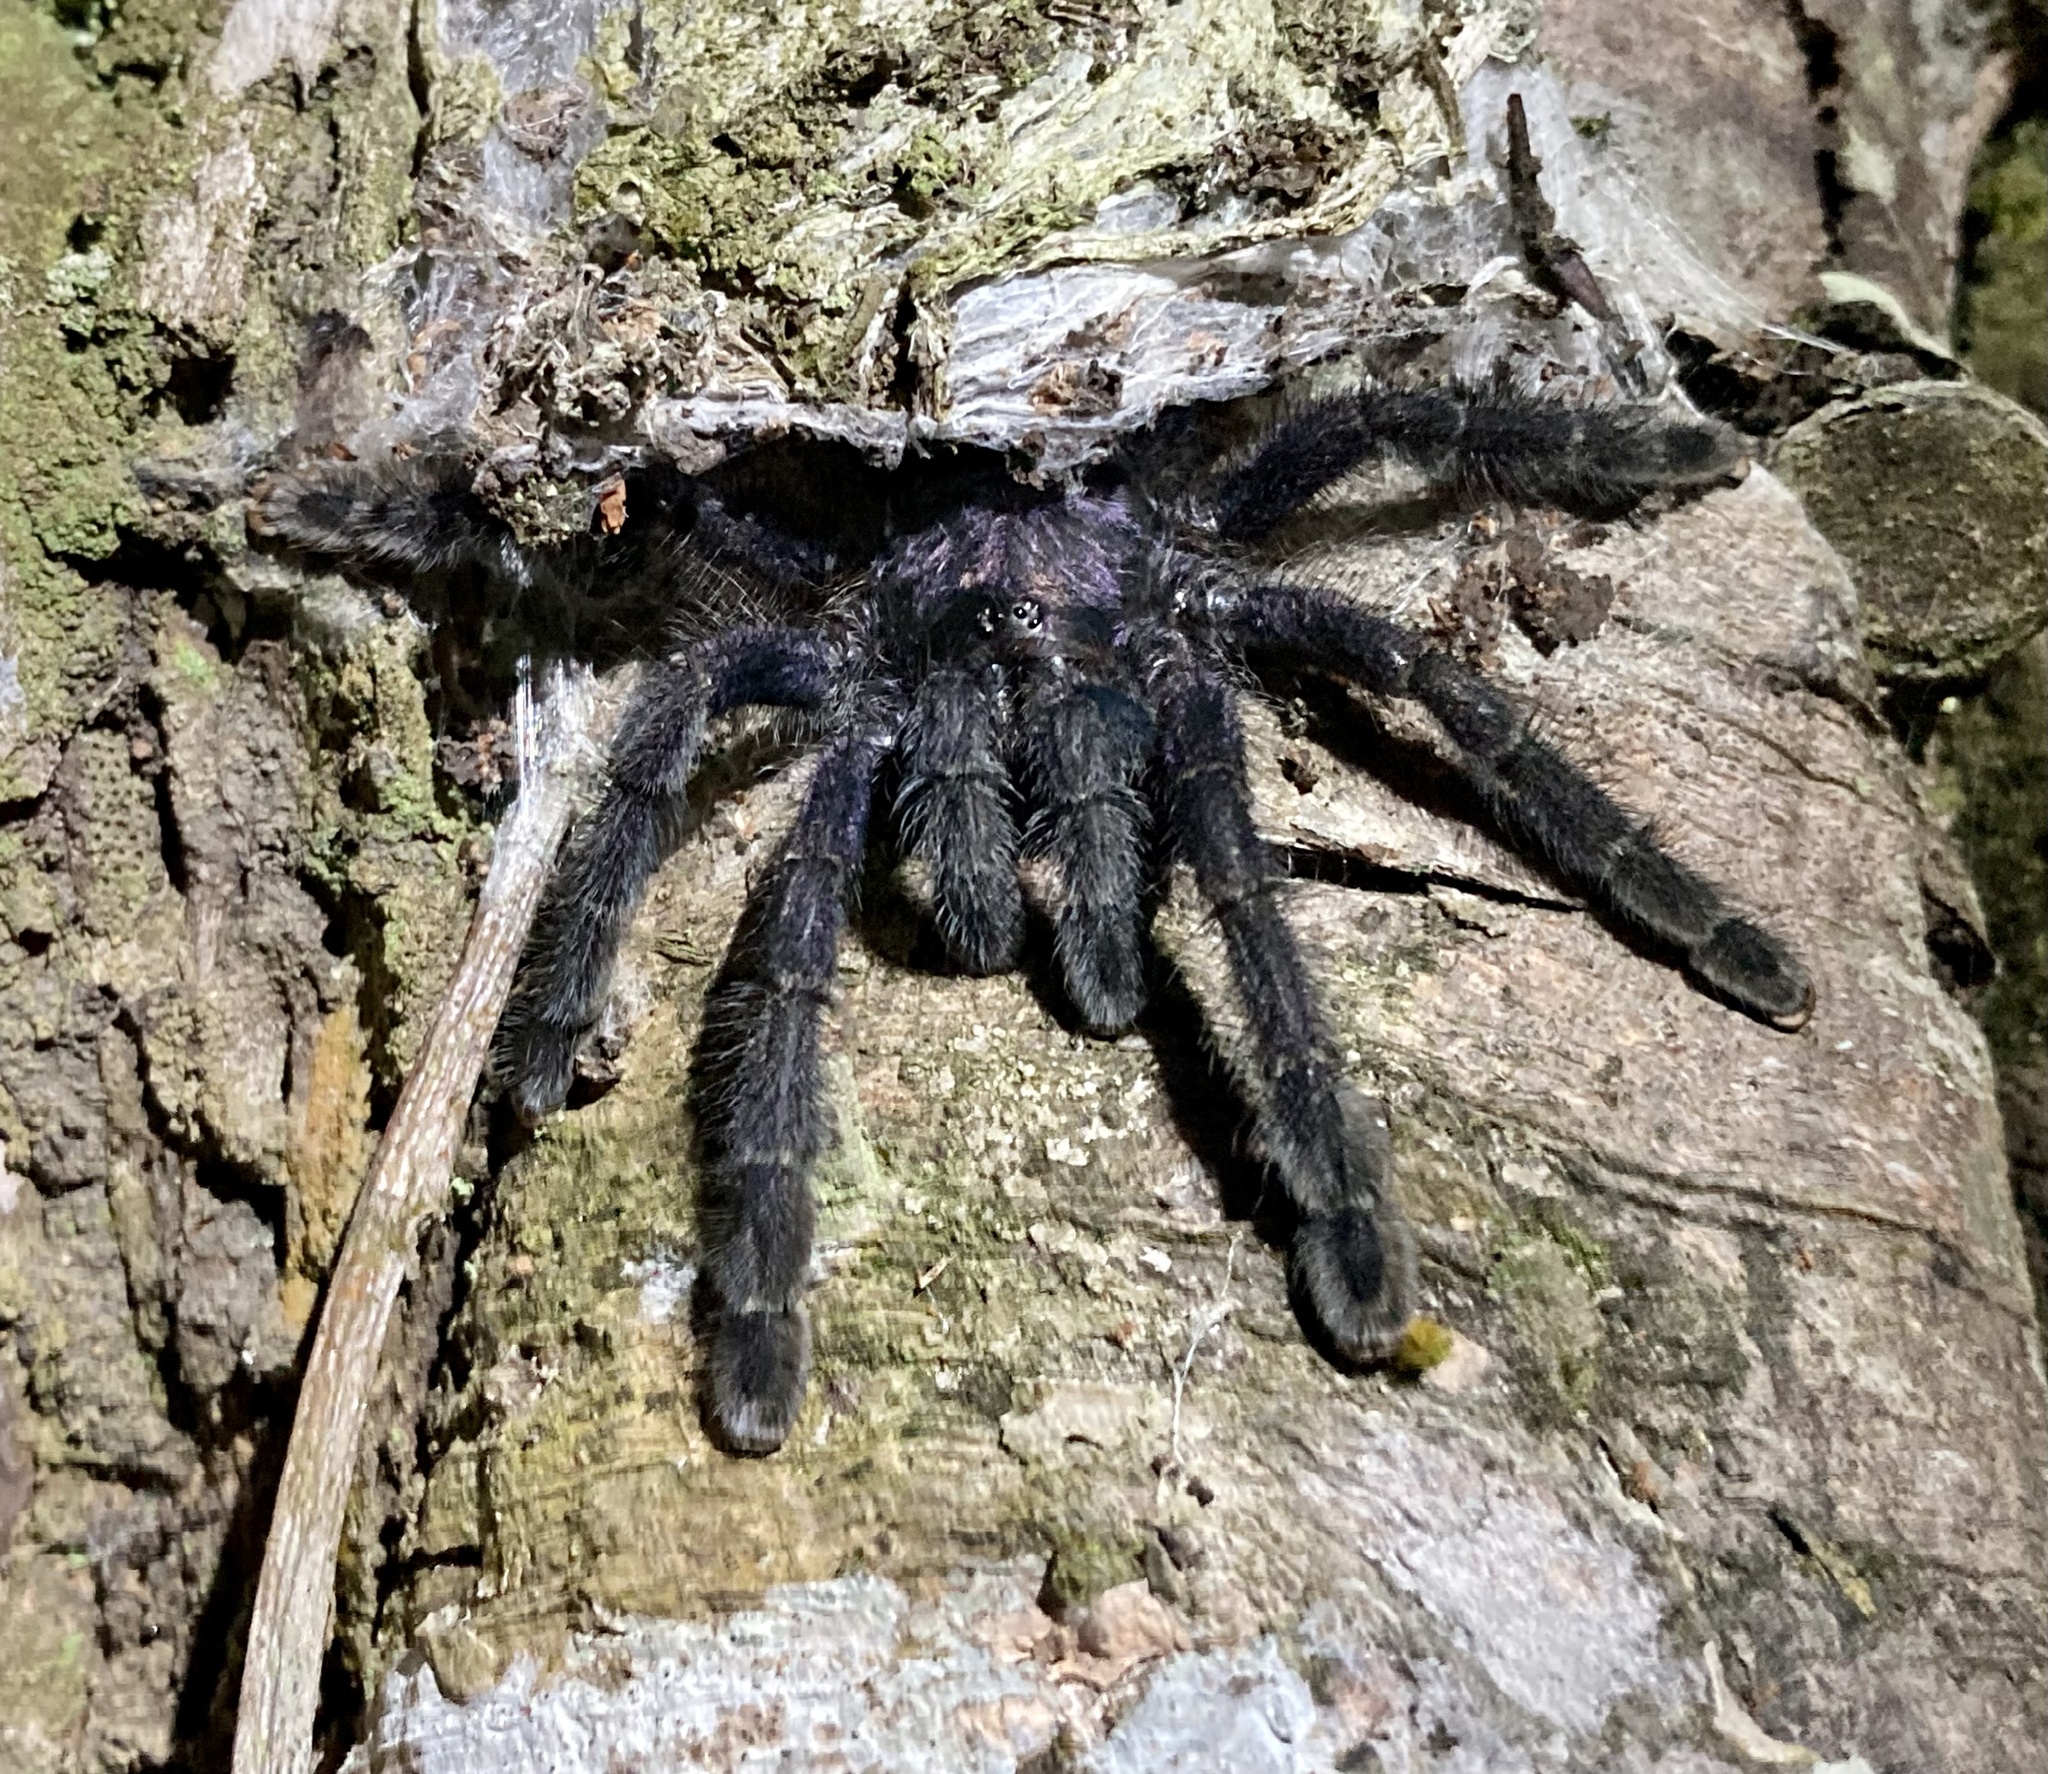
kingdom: Animalia
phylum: Arthropoda
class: Arachnida
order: Araneae
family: Theraphosidae
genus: Avicularia
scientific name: Avicularia purpurea
